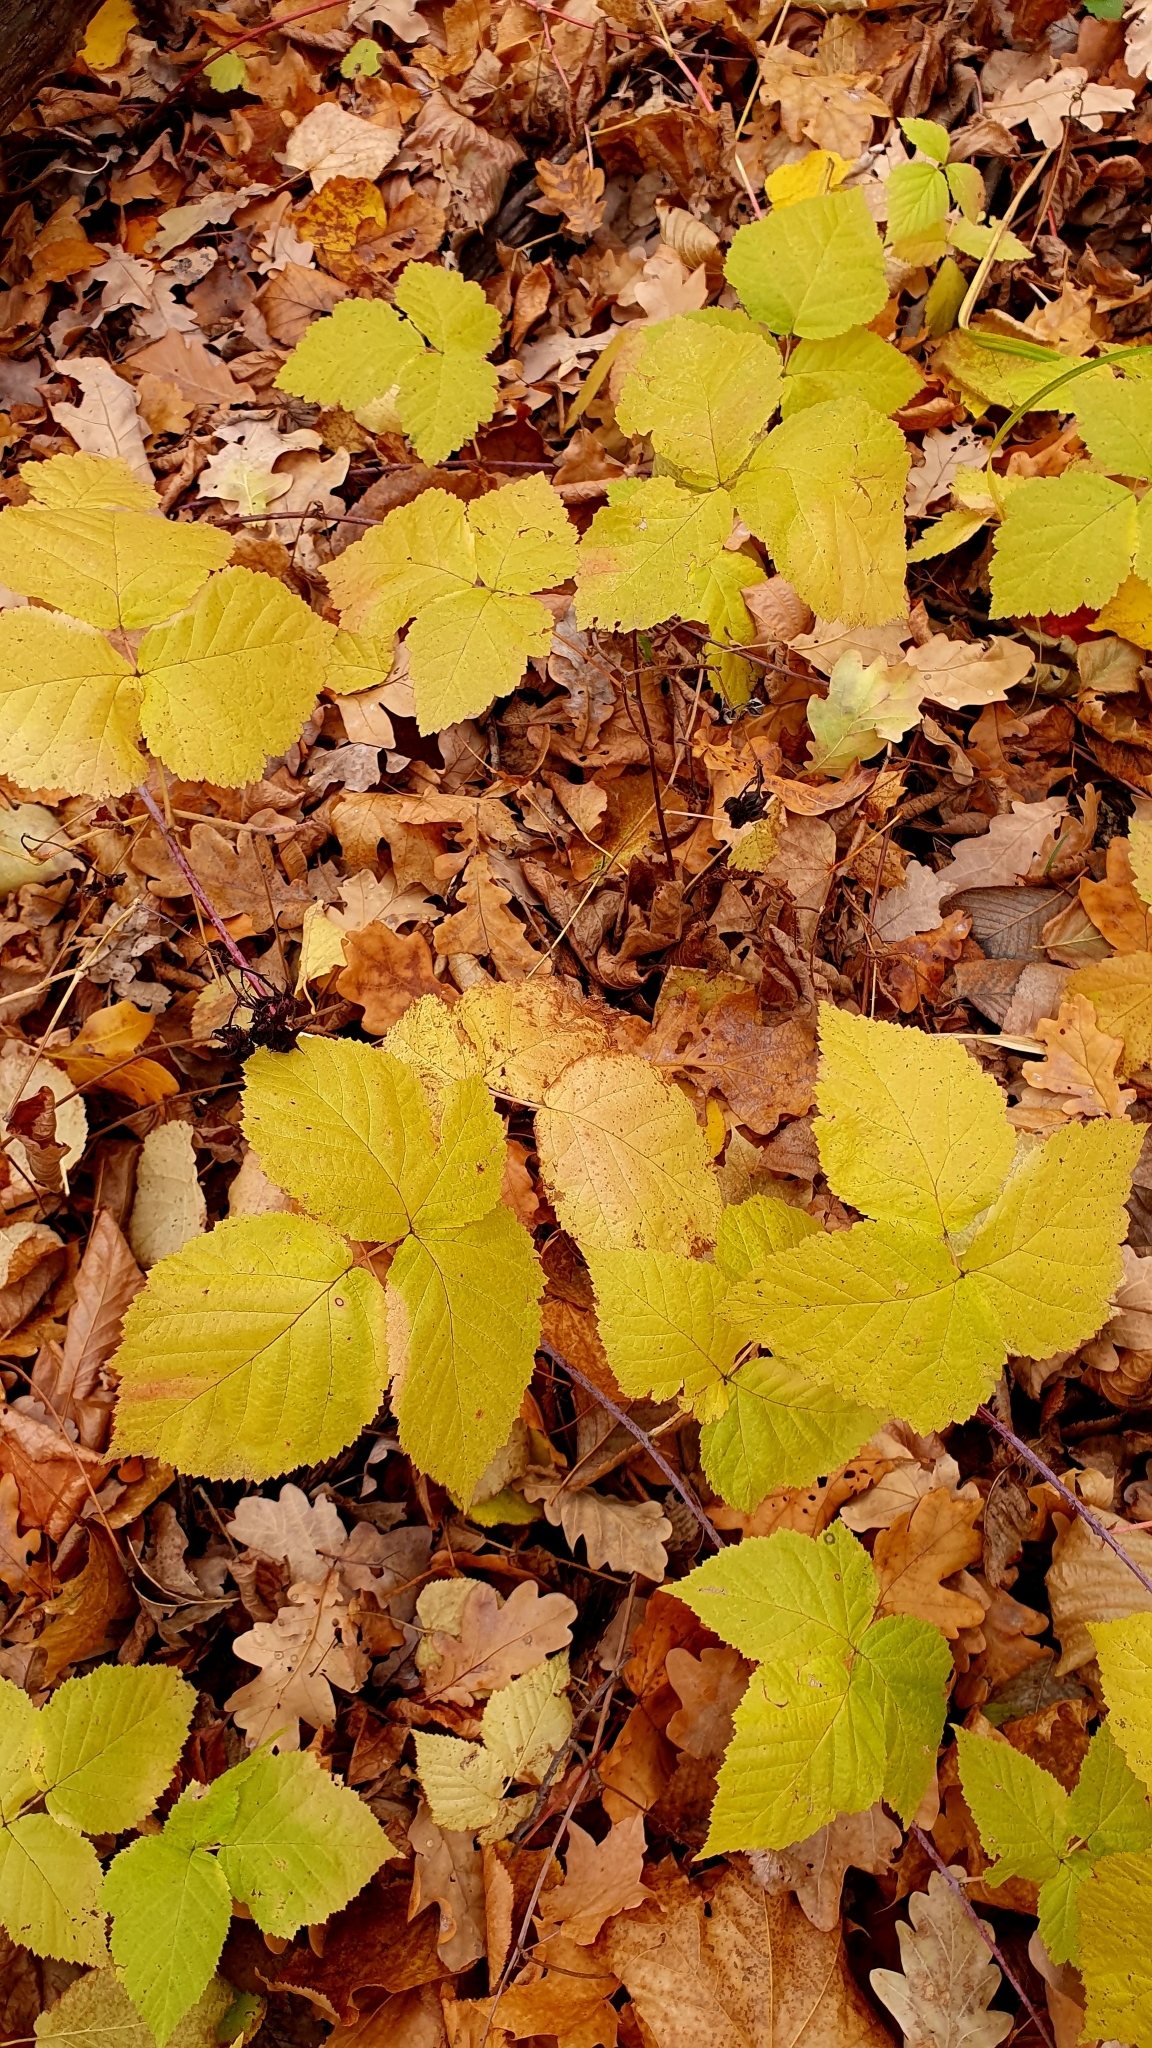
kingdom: Plantae
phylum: Tracheophyta
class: Magnoliopsida
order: Rosales
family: Rosaceae
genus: Rubus
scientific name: Rubus caesius
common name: Dewberry
